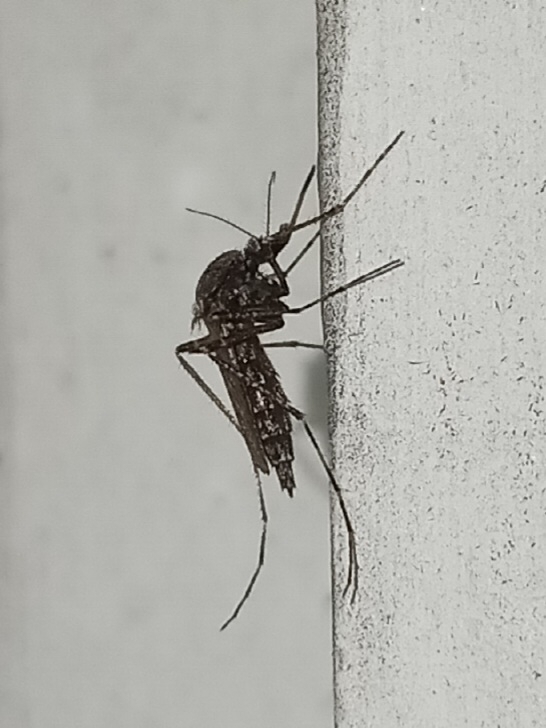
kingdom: Animalia
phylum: Arthropoda
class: Insecta
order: Diptera
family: Culicidae
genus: Psorophora
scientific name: Psorophora columbiae
